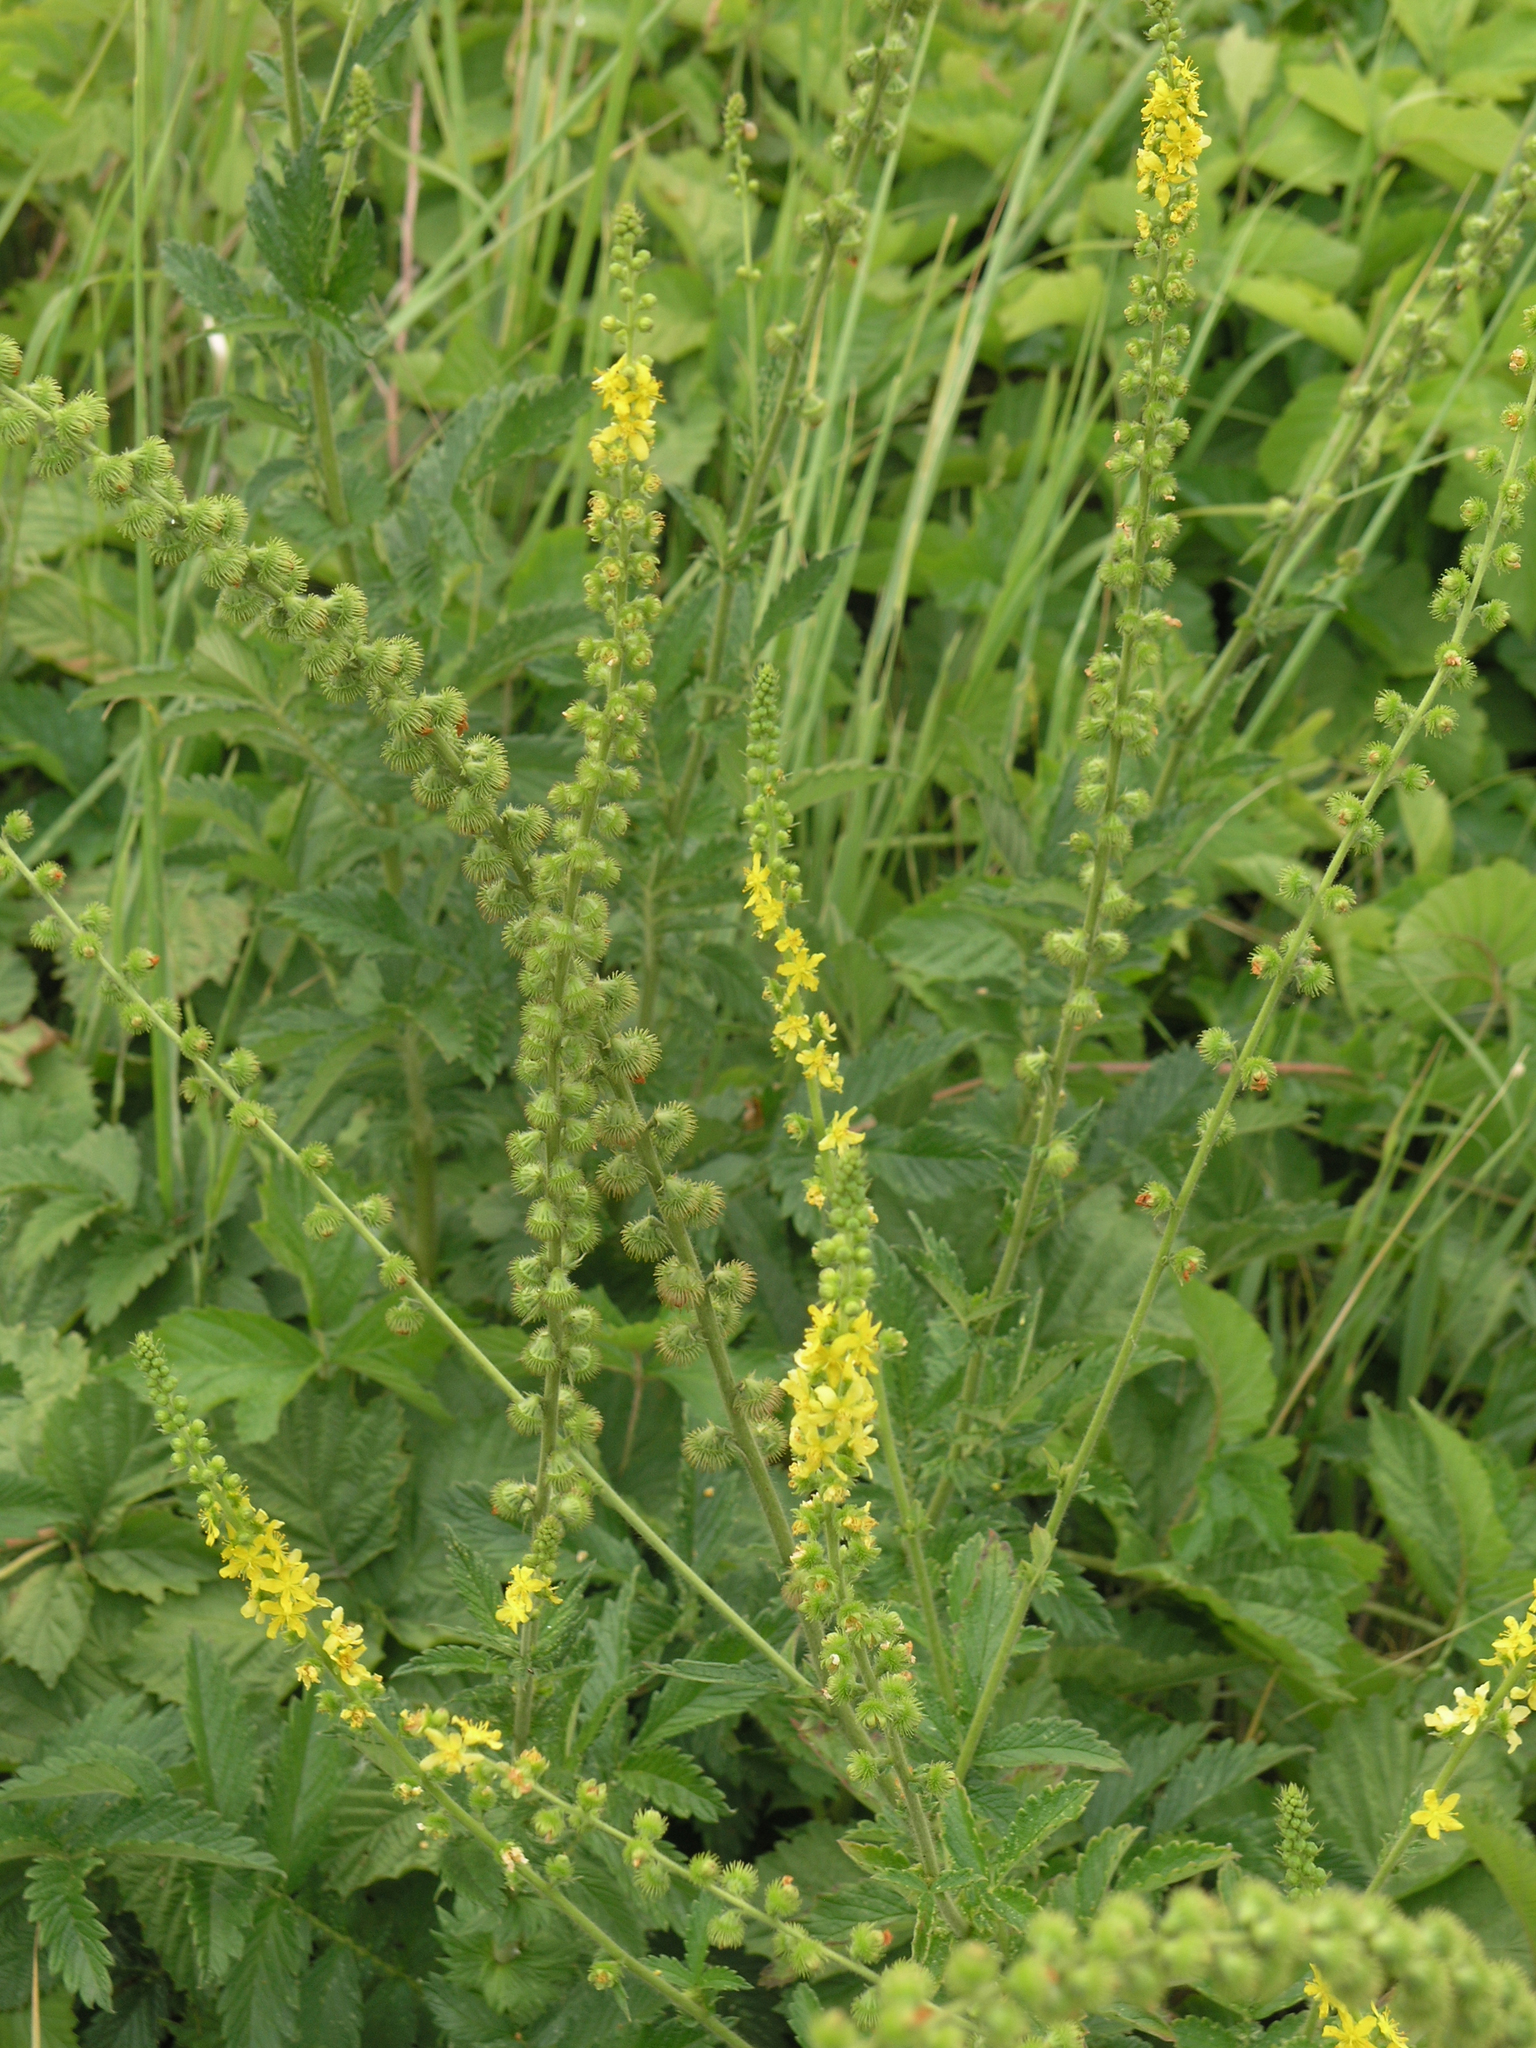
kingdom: Plantae
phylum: Tracheophyta
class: Magnoliopsida
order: Rosales
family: Rosaceae
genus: Agrimonia
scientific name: Agrimonia eupatoria
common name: Agrimony
